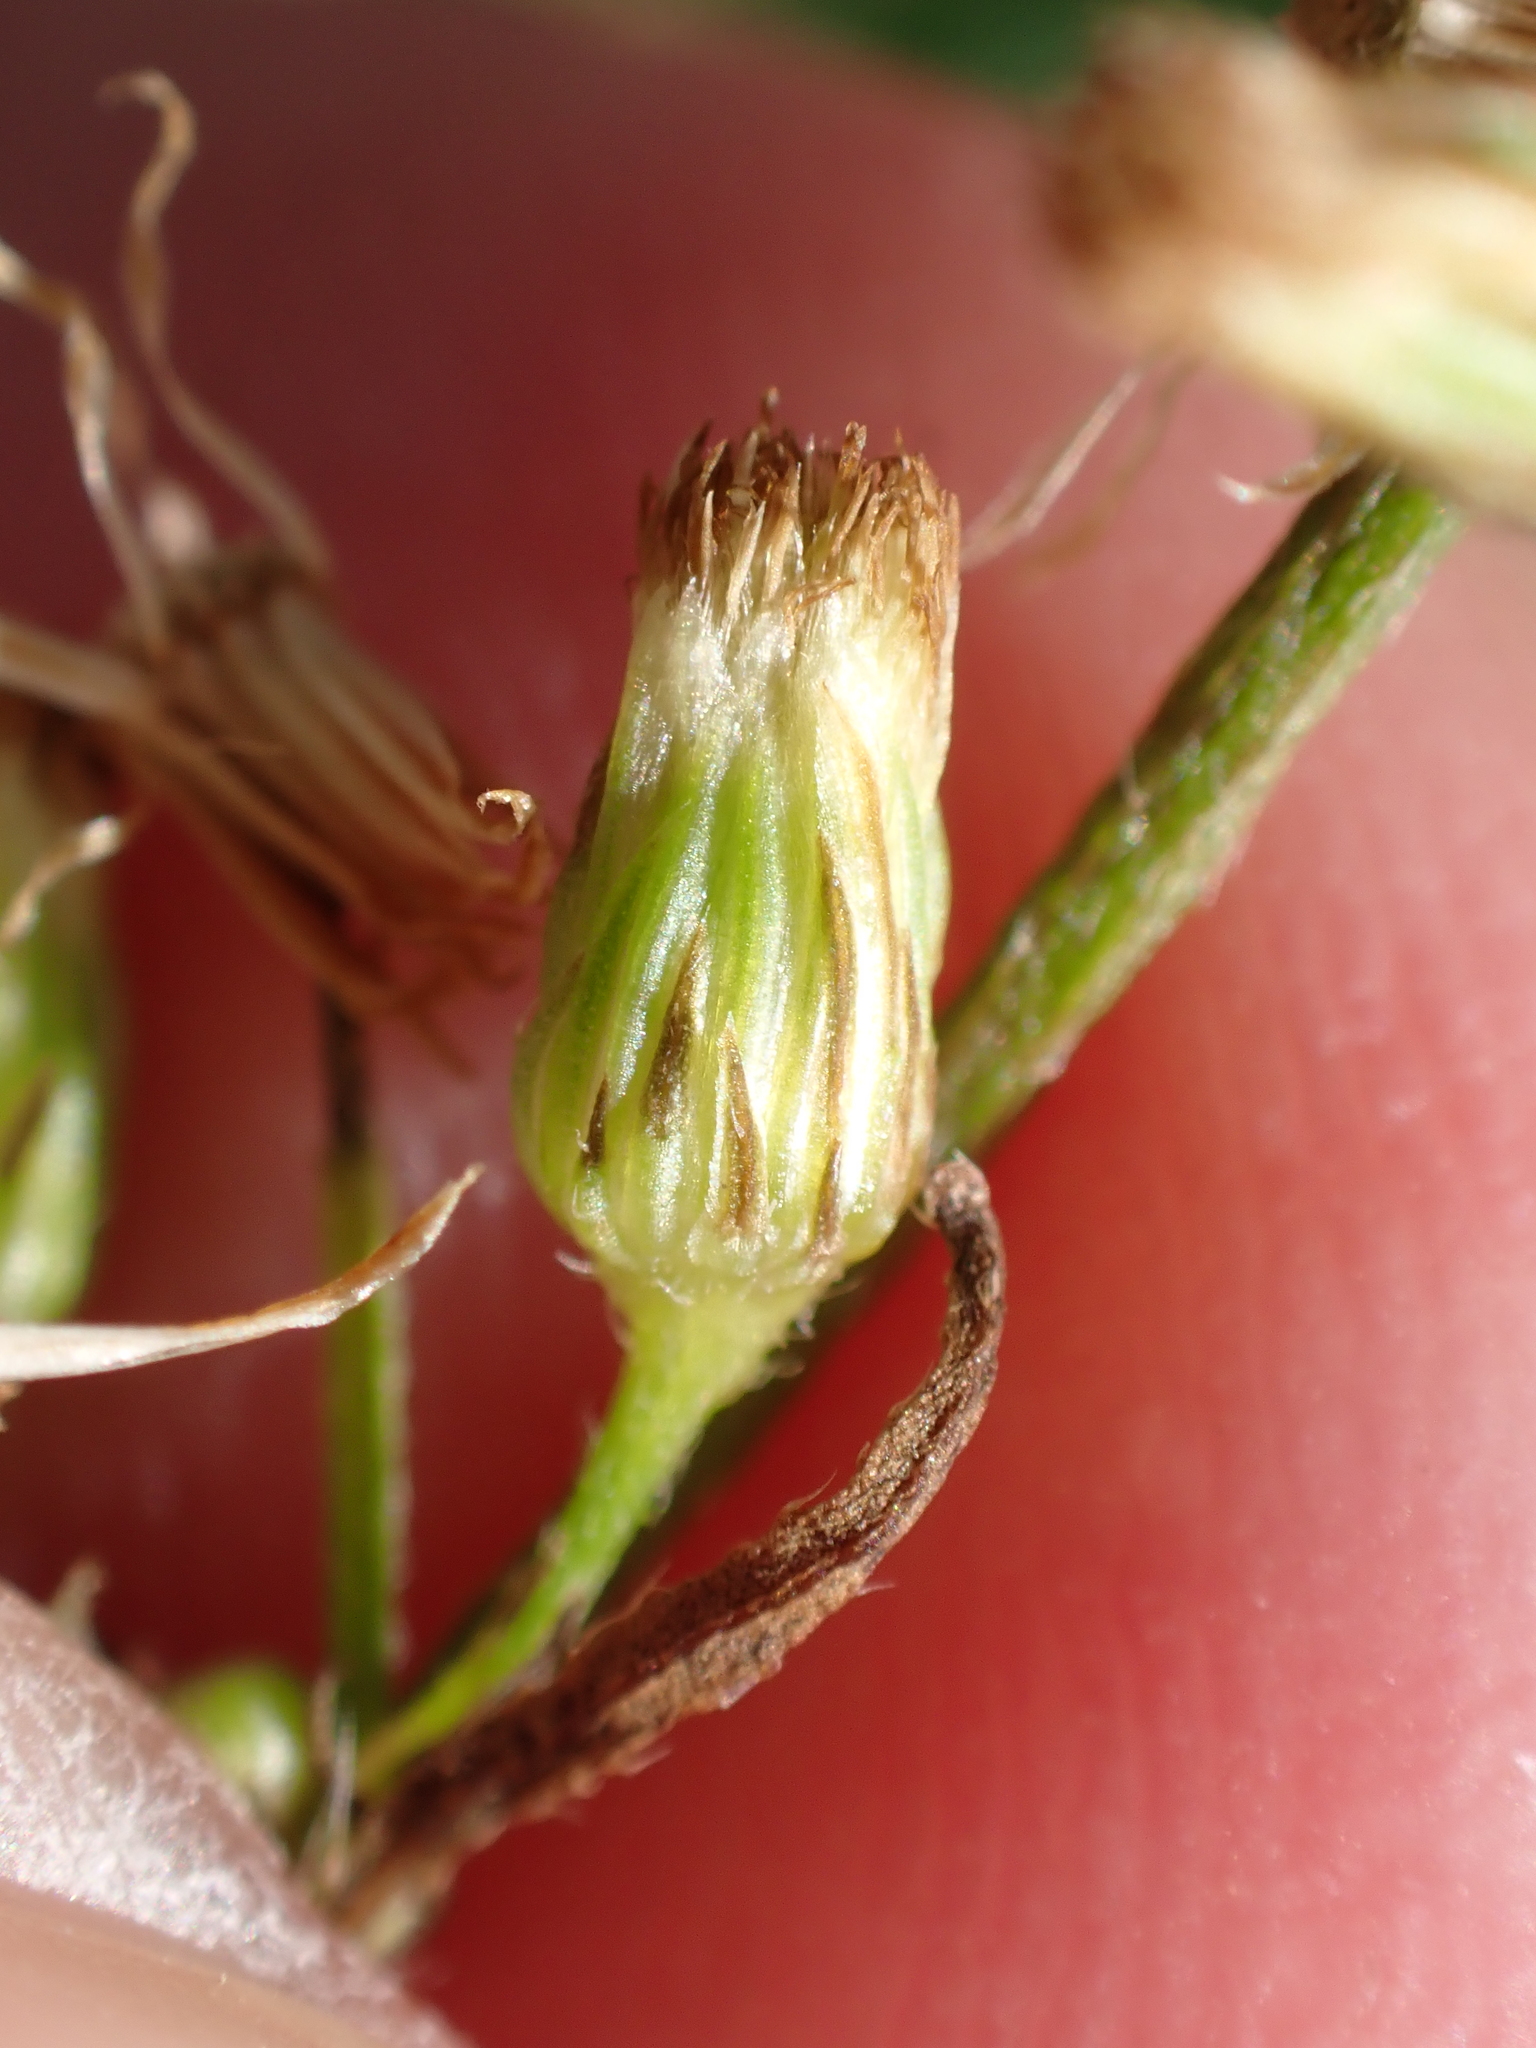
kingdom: Plantae
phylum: Tracheophyta
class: Magnoliopsida
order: Asterales
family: Asteraceae
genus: Erigeron
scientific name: Erigeron floribundus
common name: Bilbao fleabane
